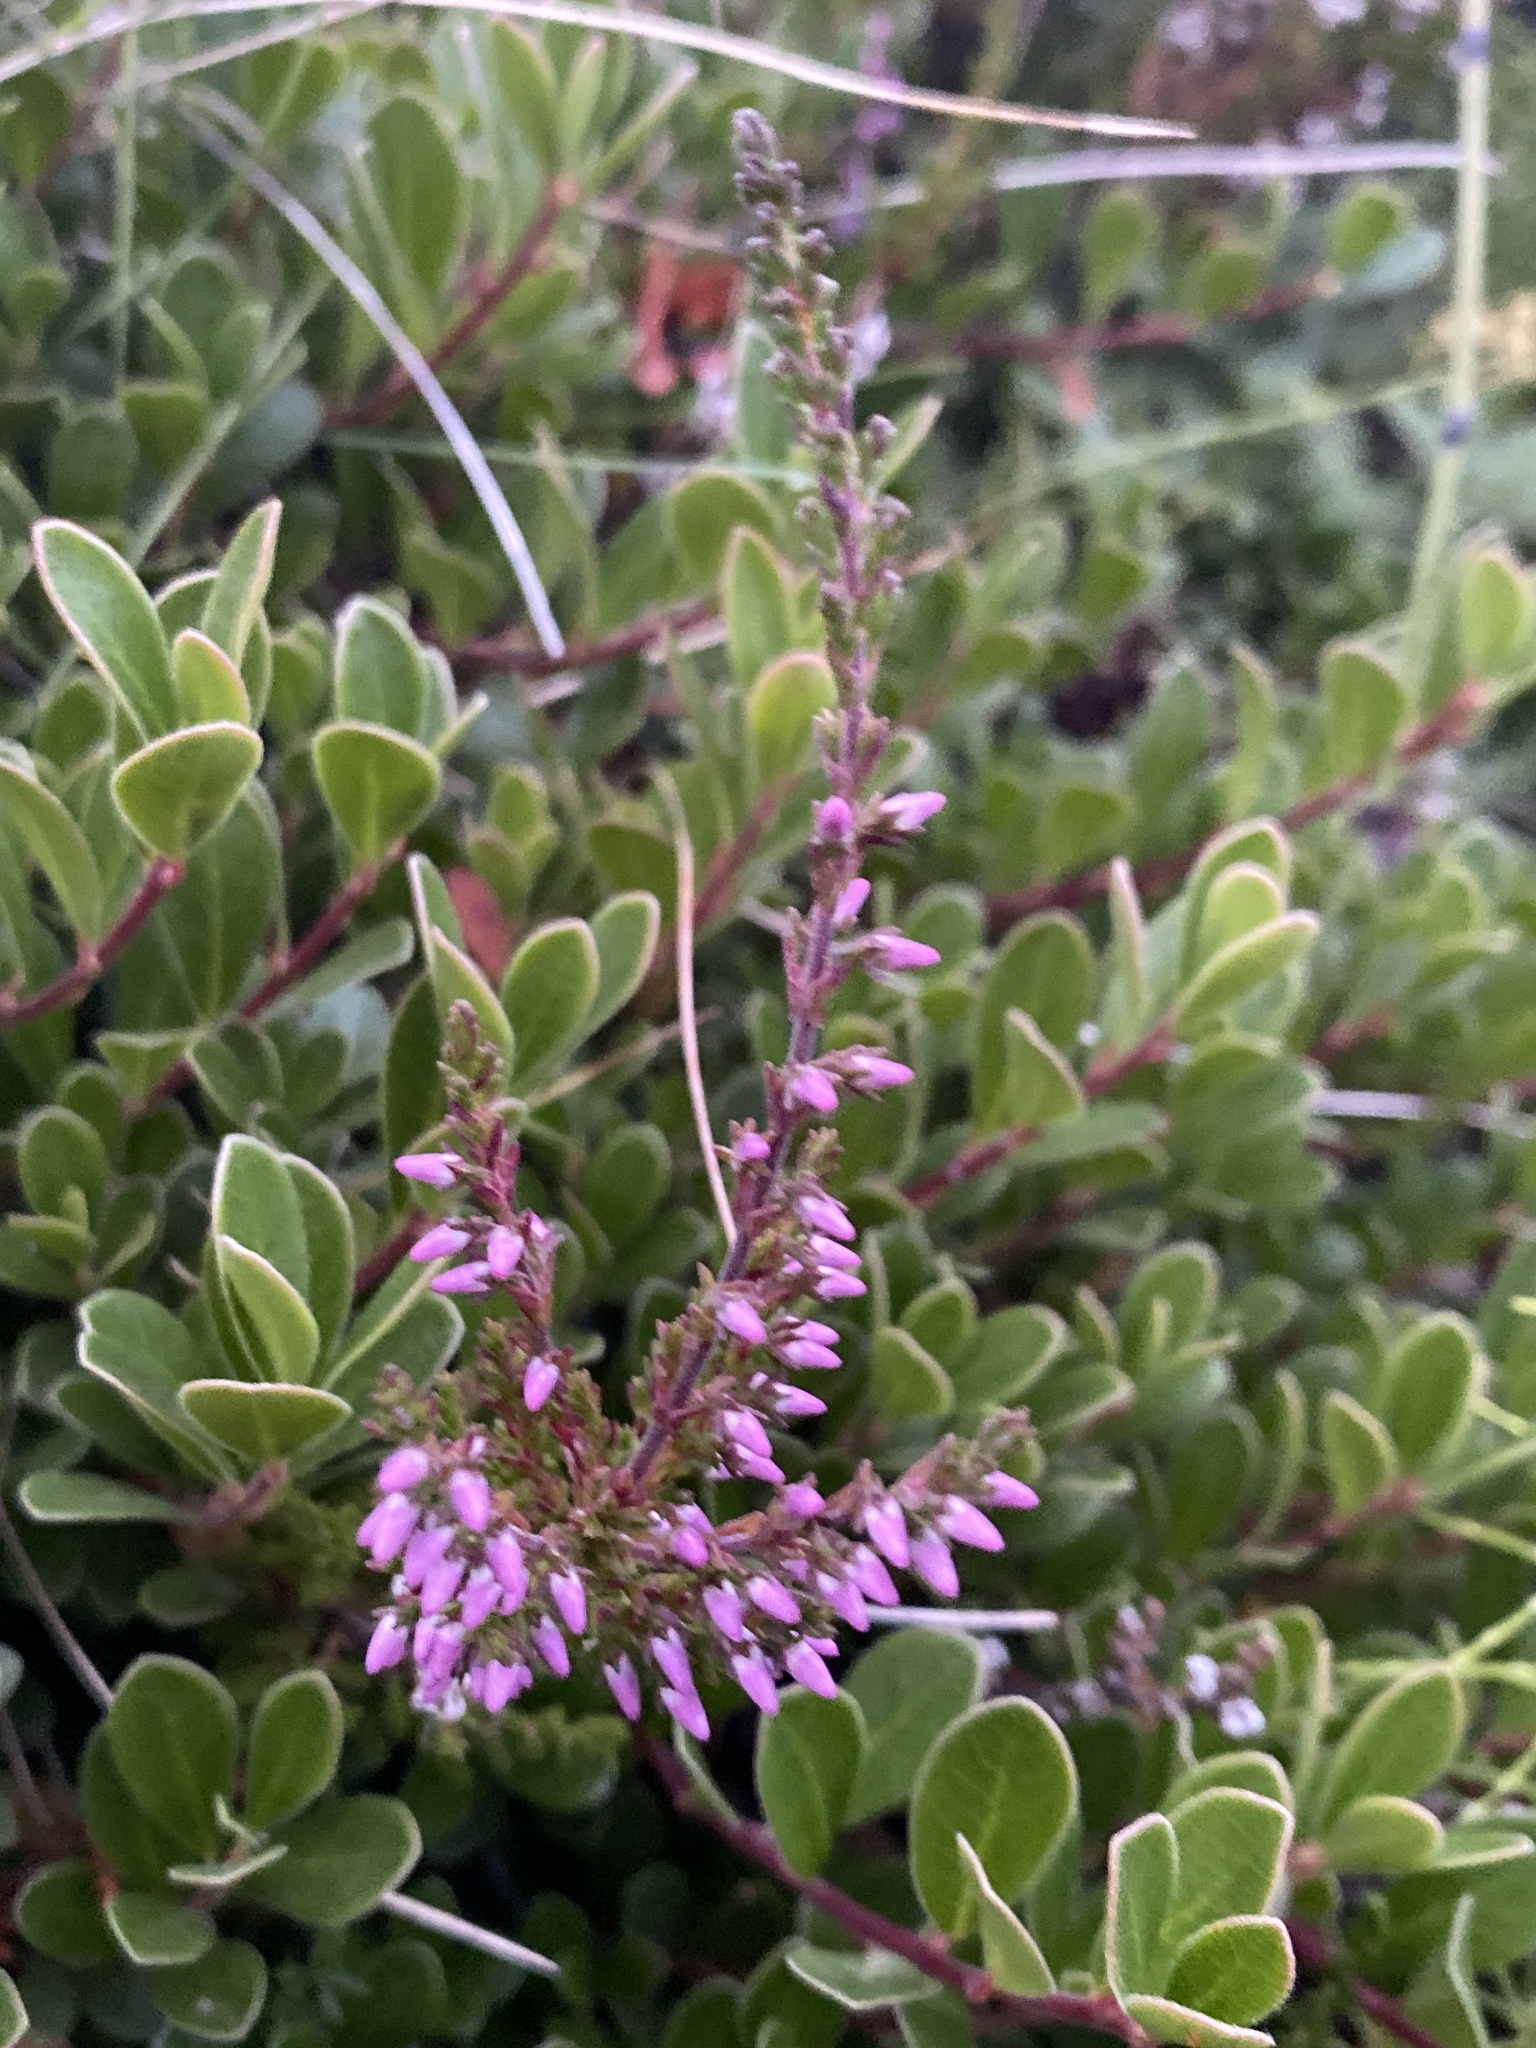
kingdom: Plantae
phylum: Tracheophyta
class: Magnoliopsida
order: Ericales
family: Ericaceae
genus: Calluna
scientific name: Calluna vulgaris
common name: Heather
